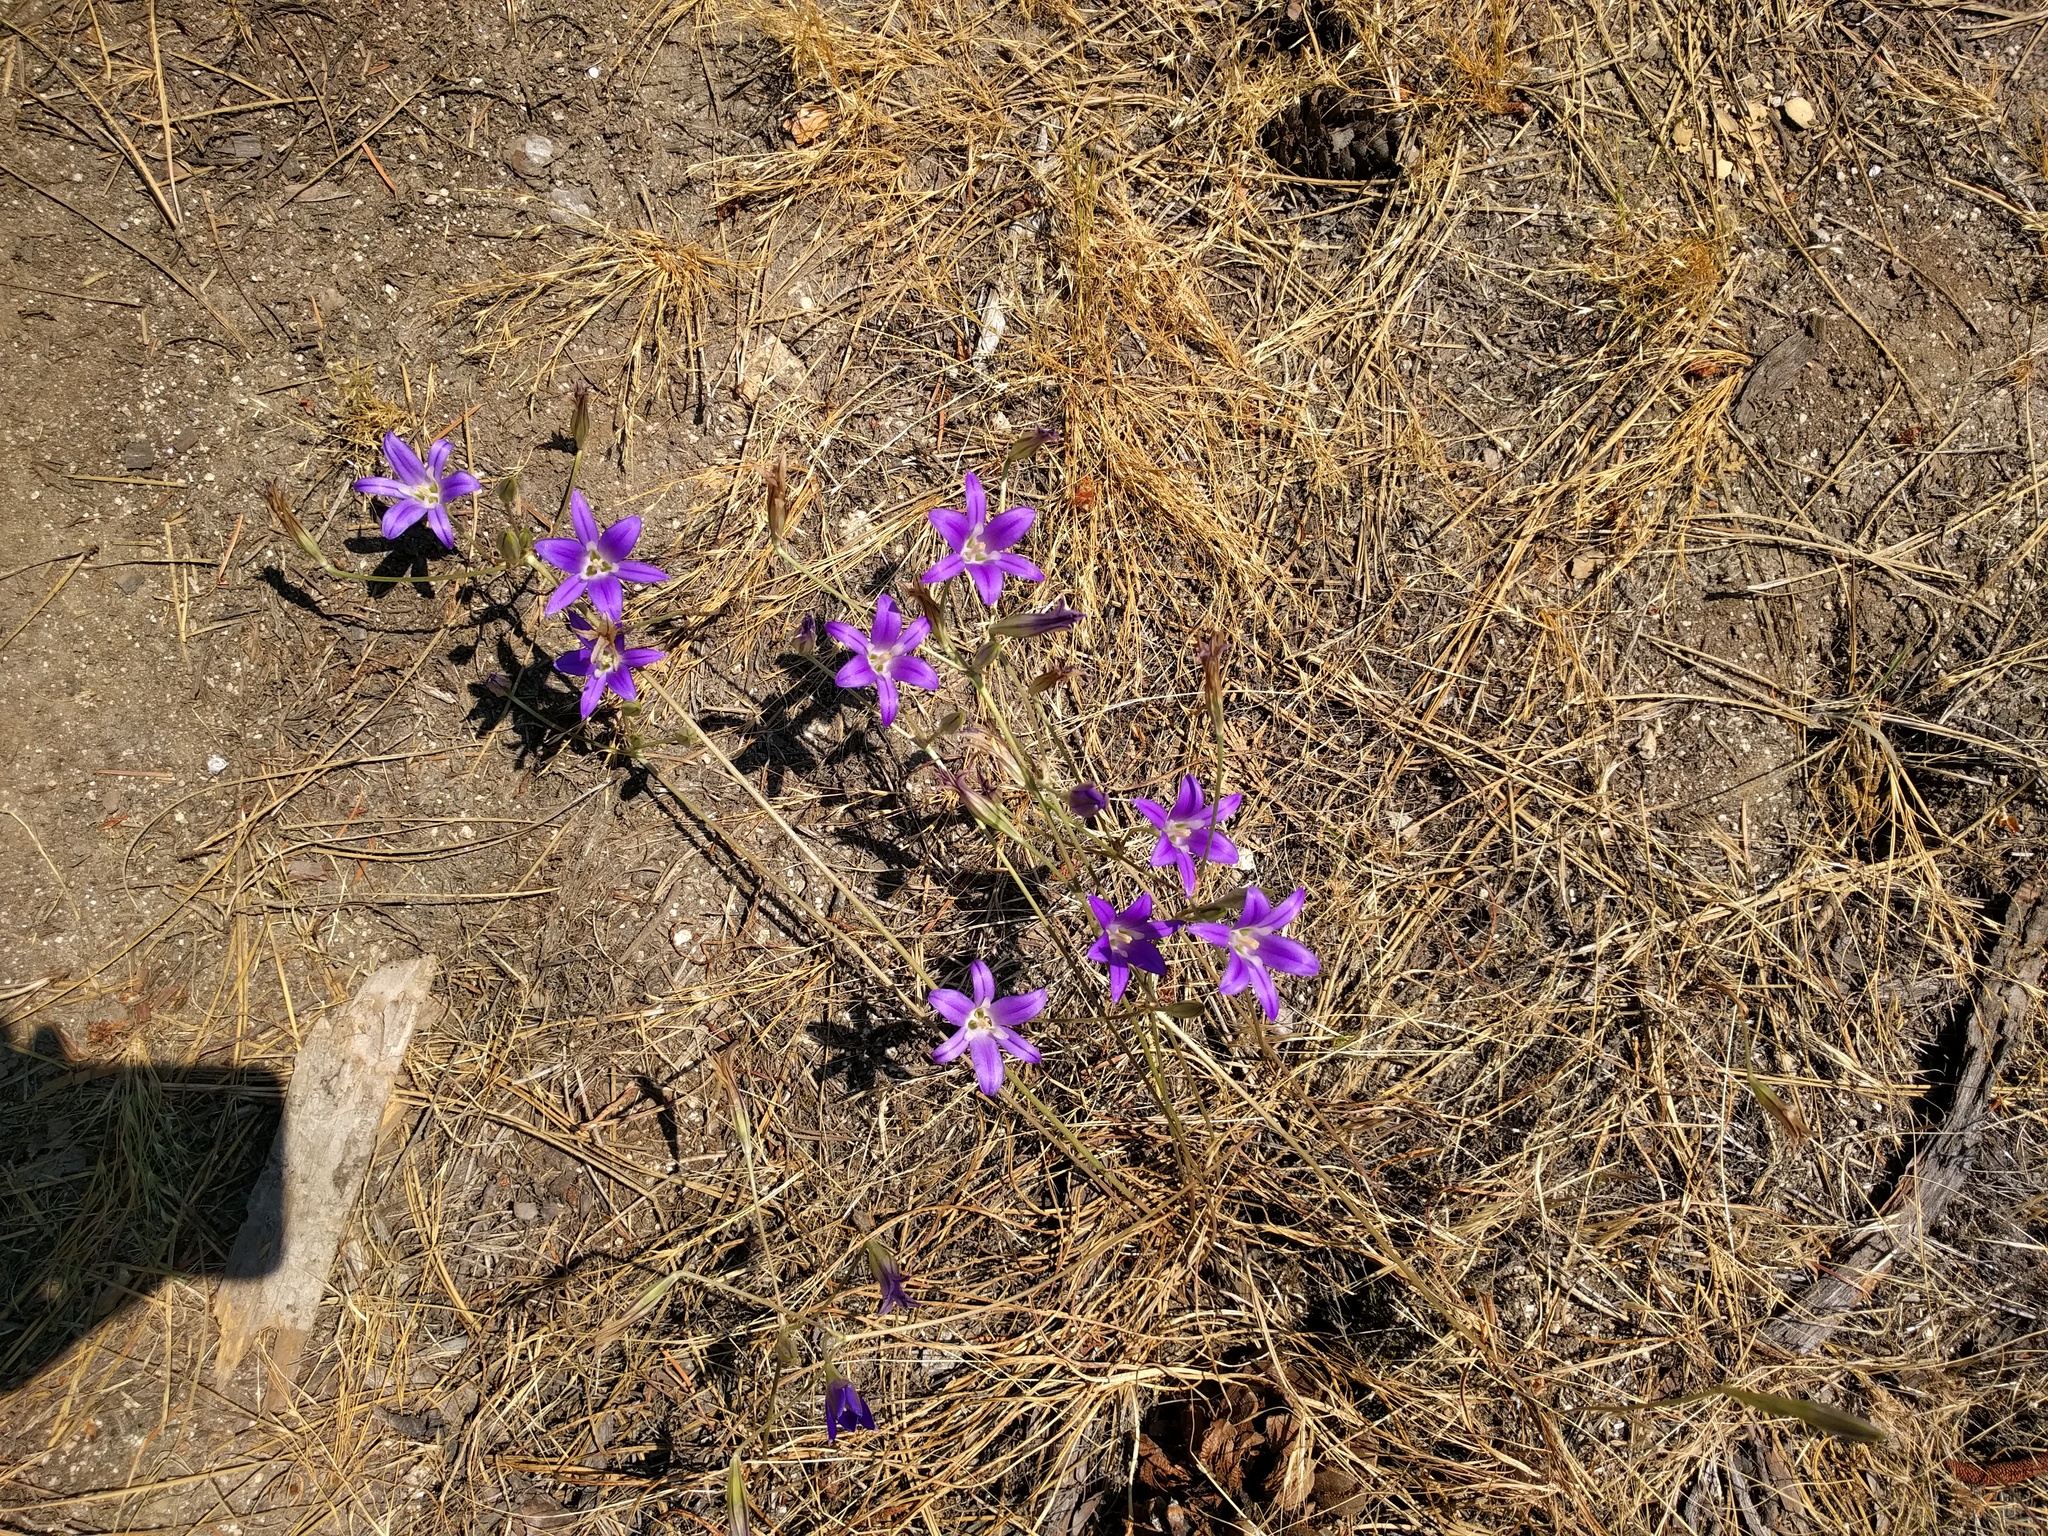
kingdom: Plantae
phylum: Tracheophyta
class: Liliopsida
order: Asparagales
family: Asparagaceae
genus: Brodiaea
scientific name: Brodiaea elegans
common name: Elegant cluster-lily
